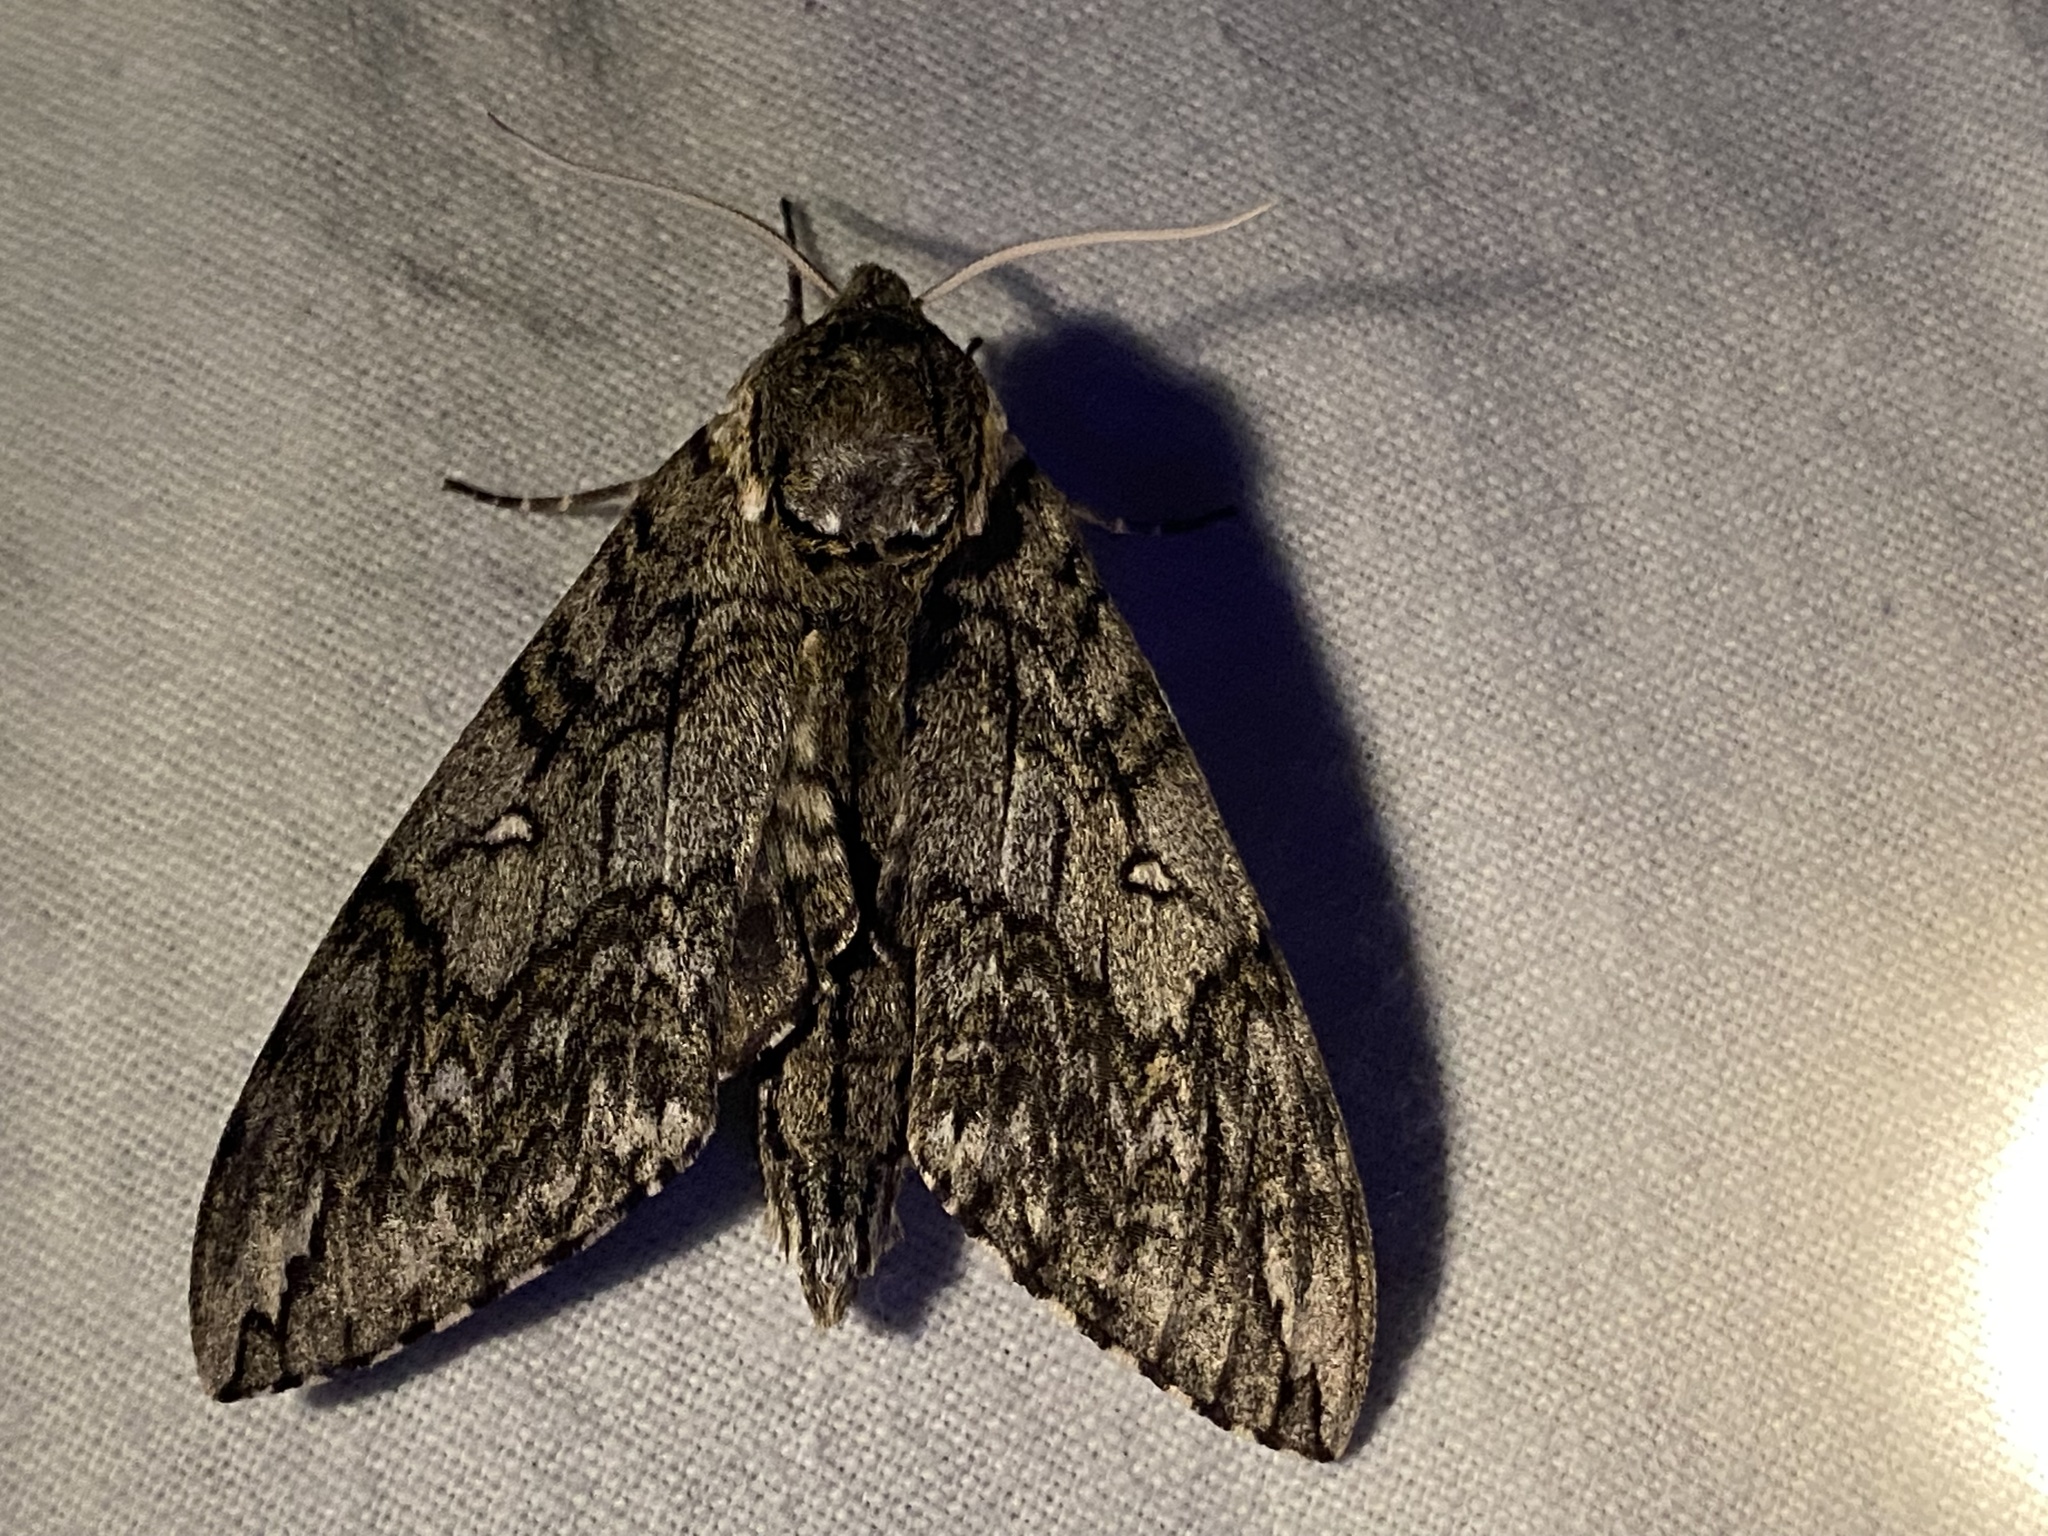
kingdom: Animalia
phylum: Arthropoda
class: Insecta
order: Lepidoptera
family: Sphingidae
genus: Ceratomia
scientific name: Ceratomia undulosa
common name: Waved sphinx
